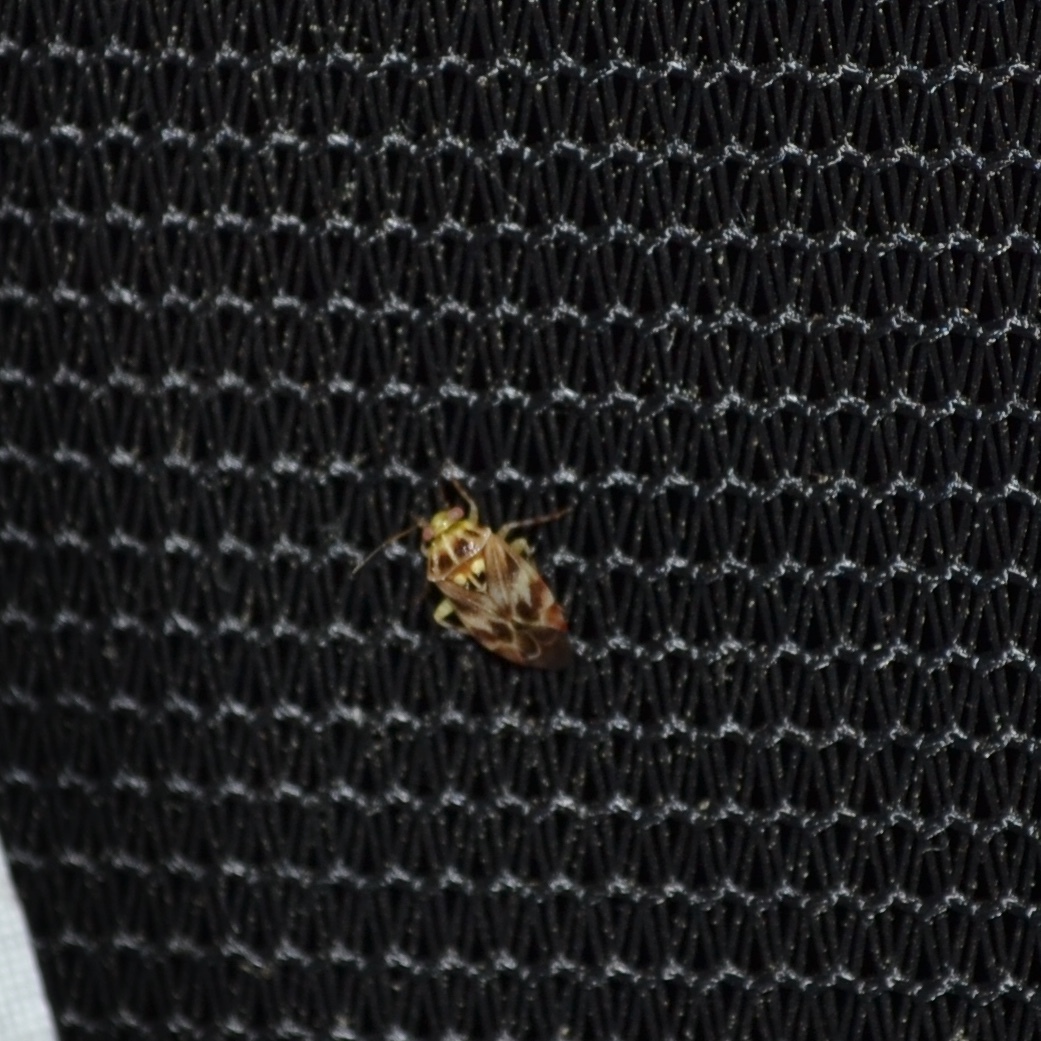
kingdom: Animalia
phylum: Arthropoda
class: Insecta
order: Hemiptera
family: Miridae
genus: Tropidosteptes
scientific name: Tropidosteptes quercicola
